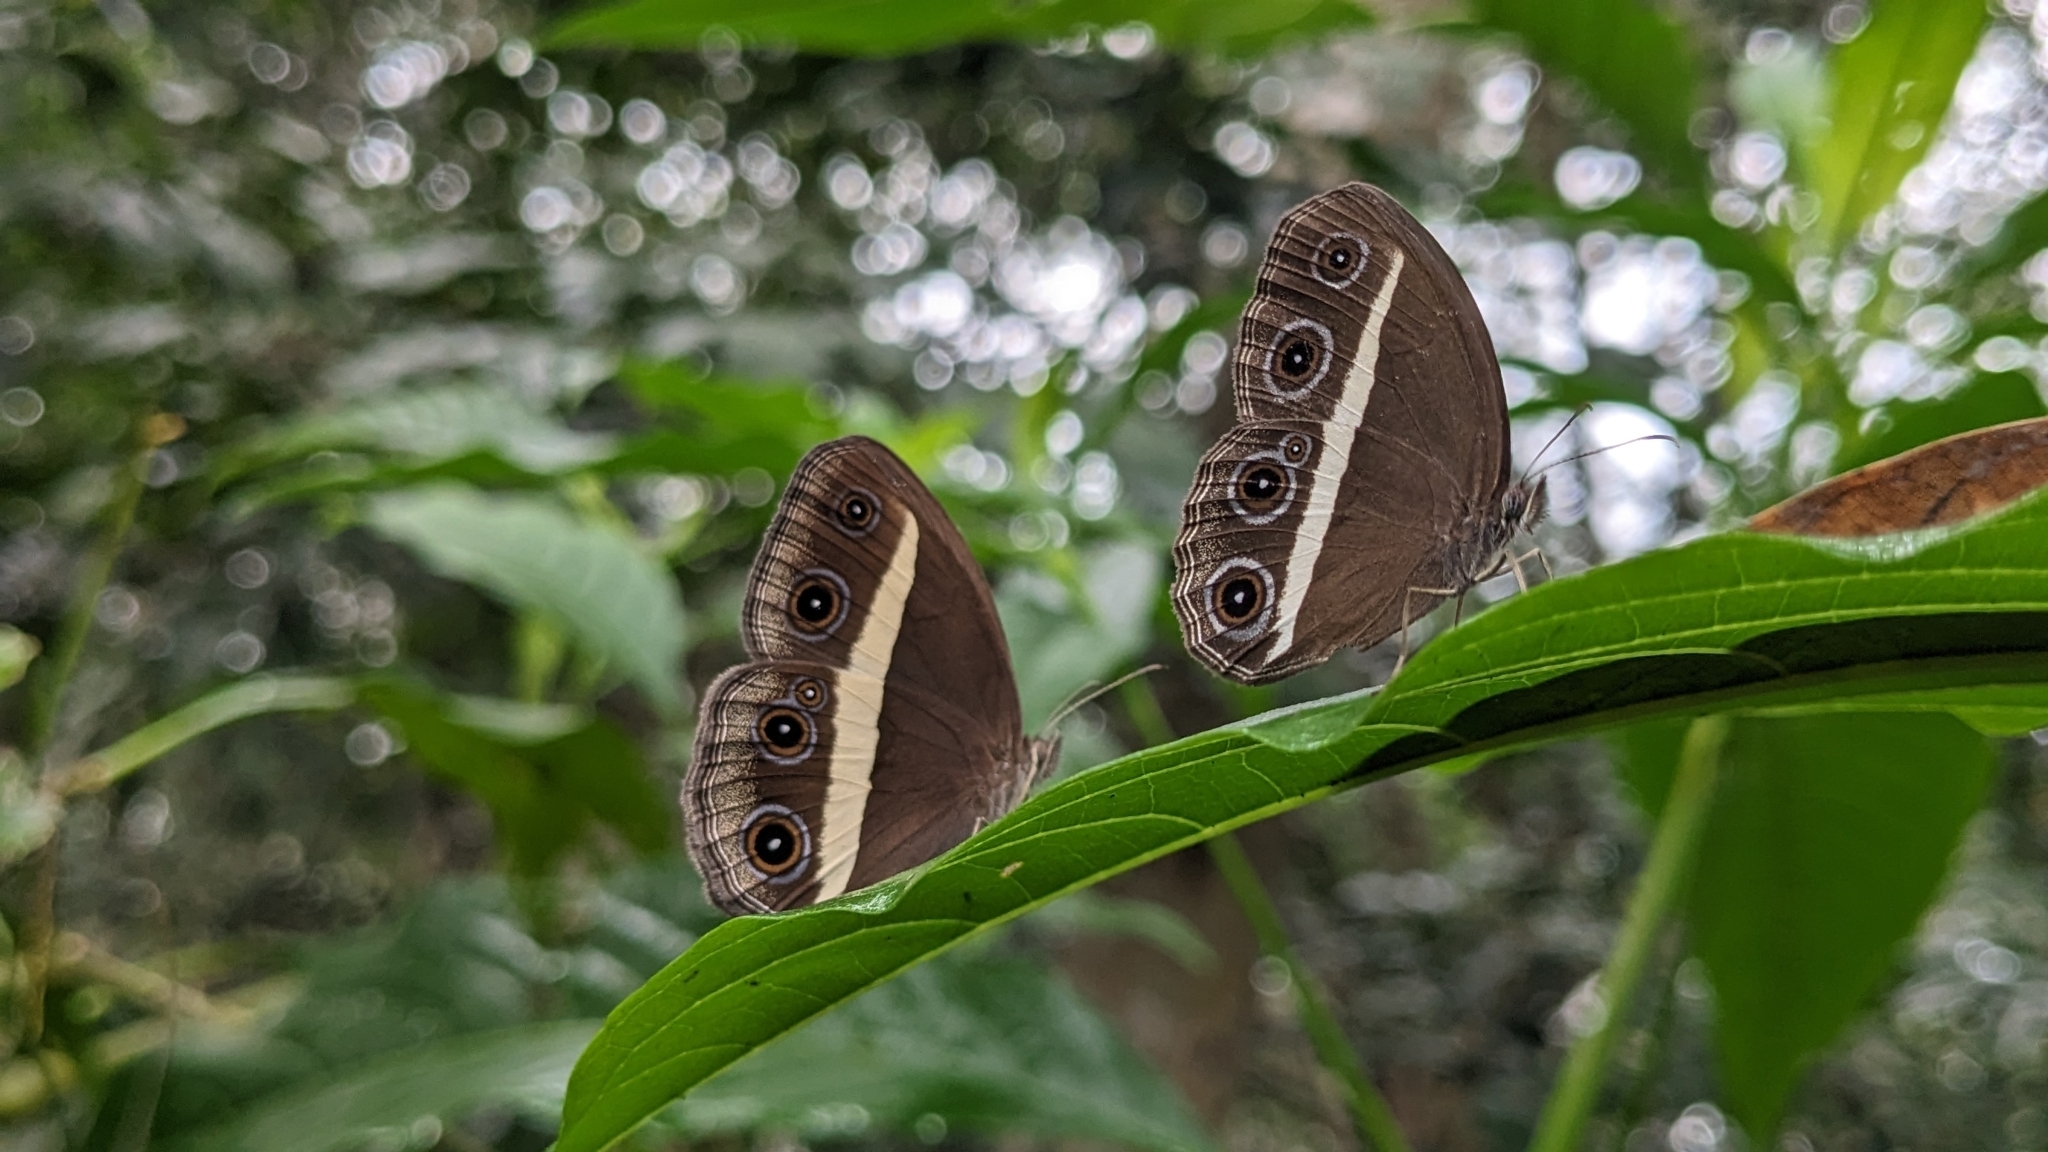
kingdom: Animalia
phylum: Arthropoda
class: Insecta
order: Lepidoptera
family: Nymphalidae
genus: Orsotriaena
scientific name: Orsotriaena medus
